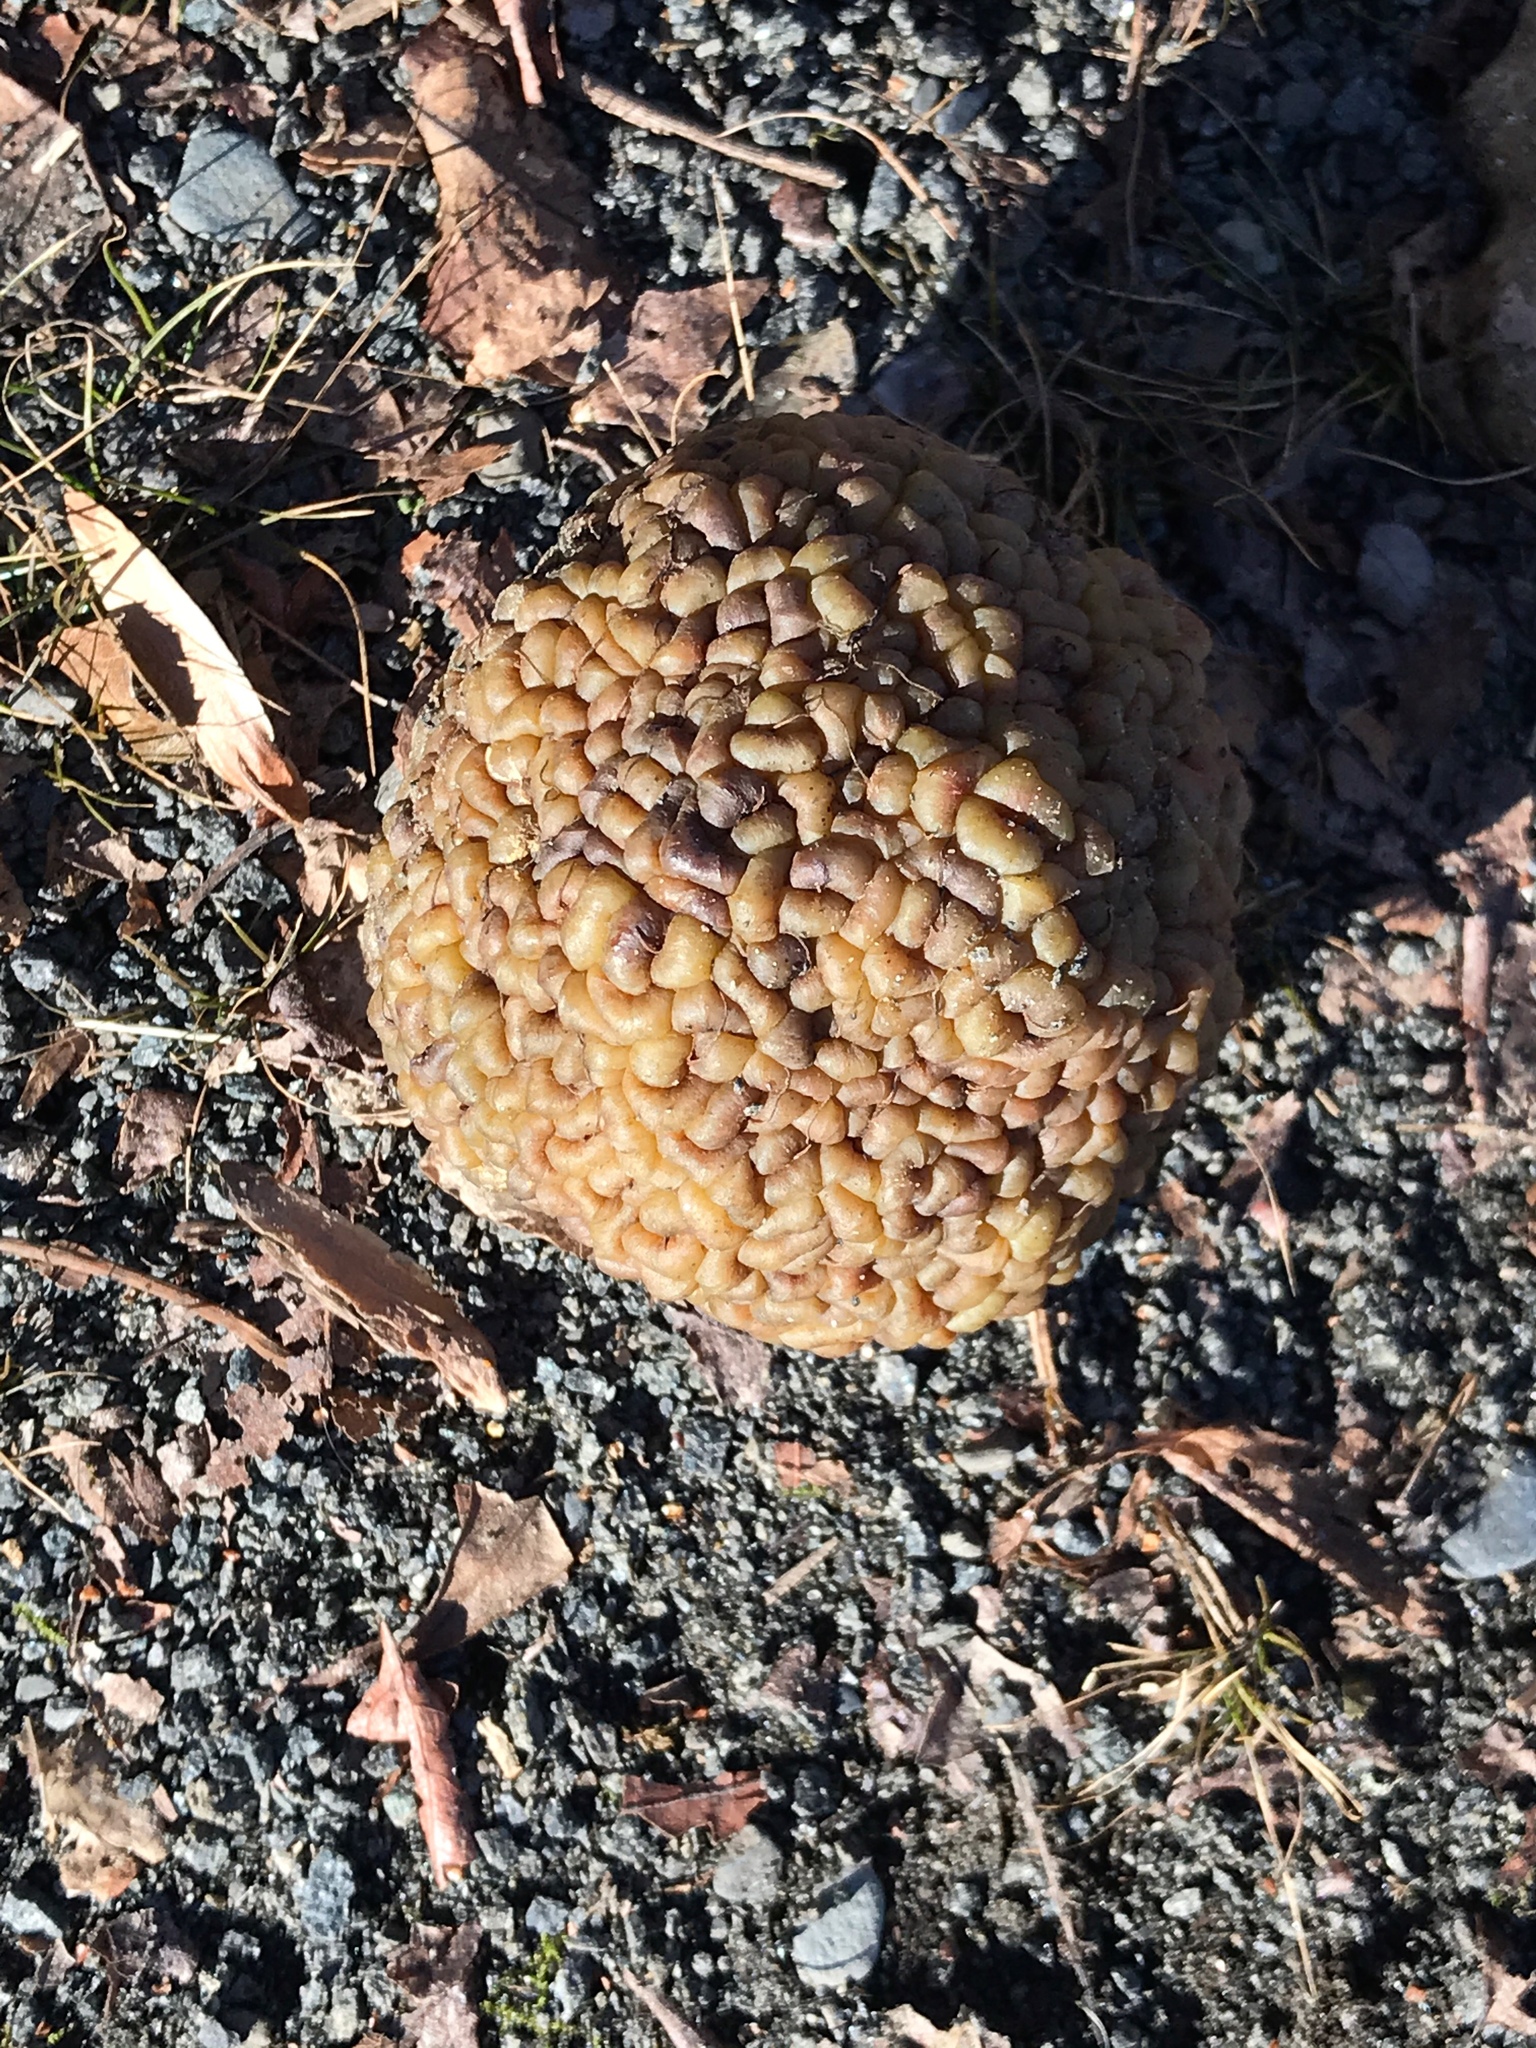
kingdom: Plantae
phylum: Tracheophyta
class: Magnoliopsida
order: Rosales
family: Moraceae
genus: Maclura
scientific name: Maclura pomifera
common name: Osage-orange
